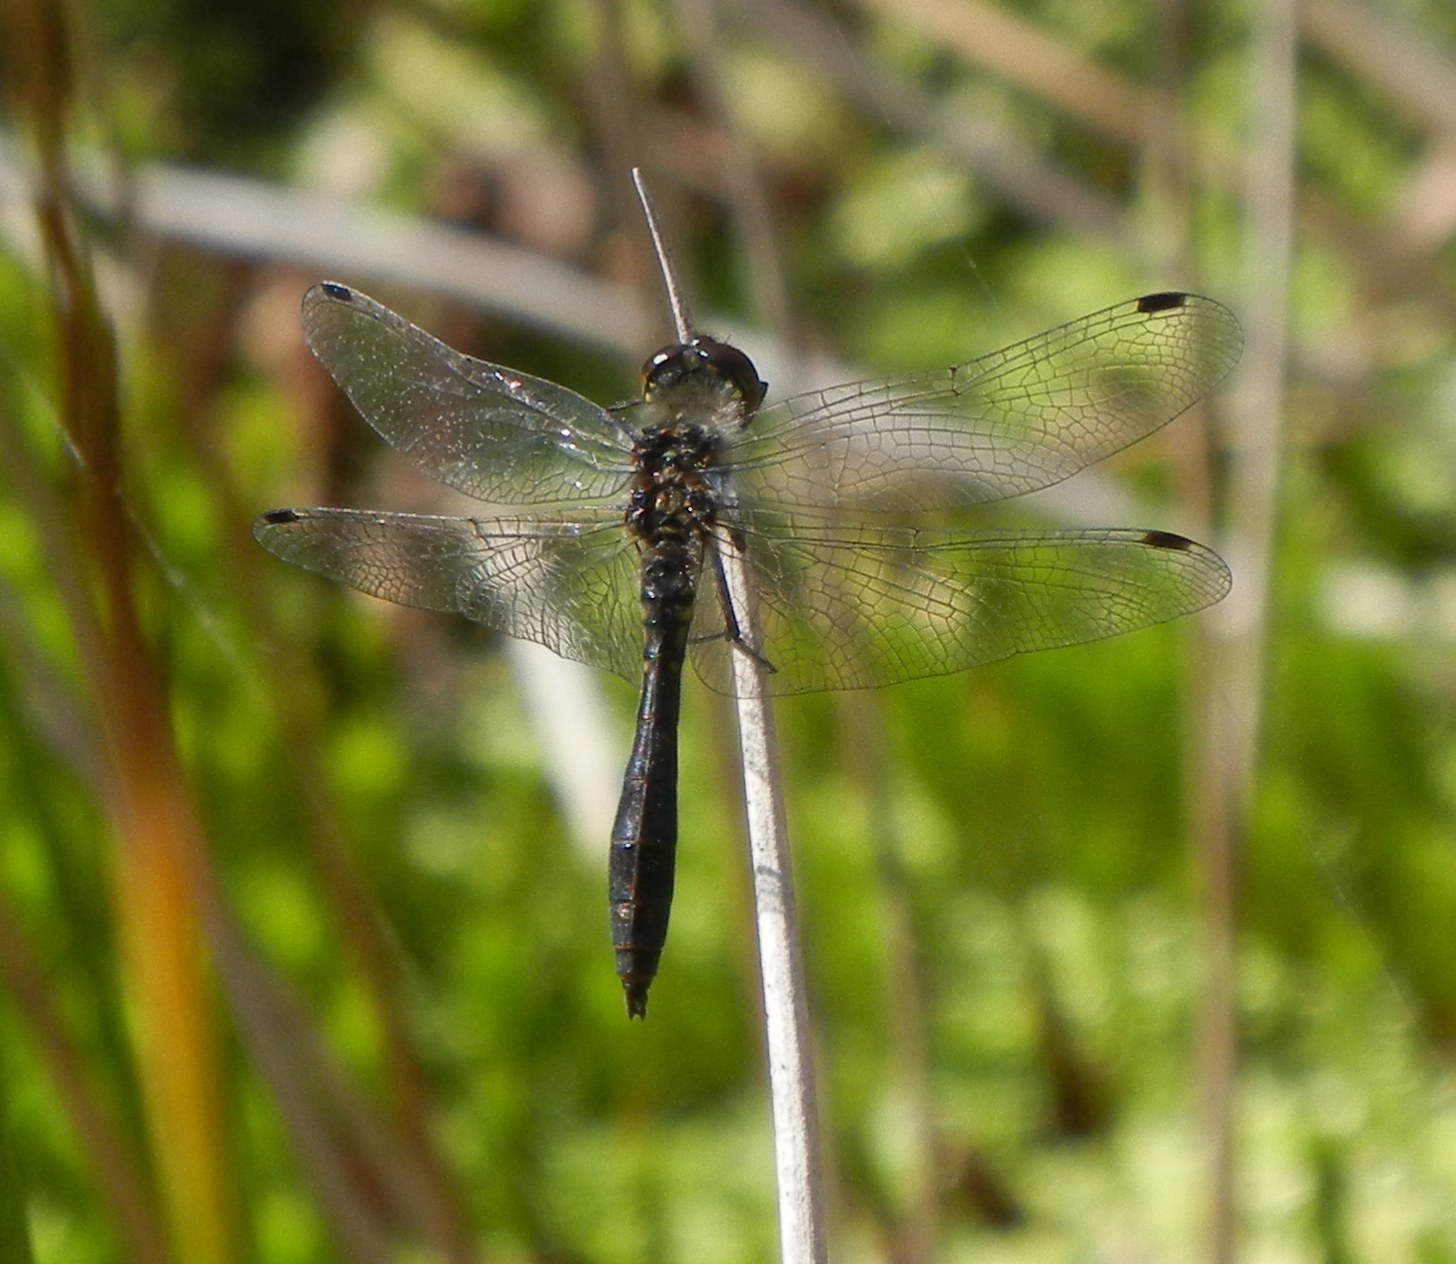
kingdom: Animalia
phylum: Arthropoda
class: Insecta
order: Odonata
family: Libellulidae
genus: Sympetrum
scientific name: Sympetrum danae
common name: Black darter
